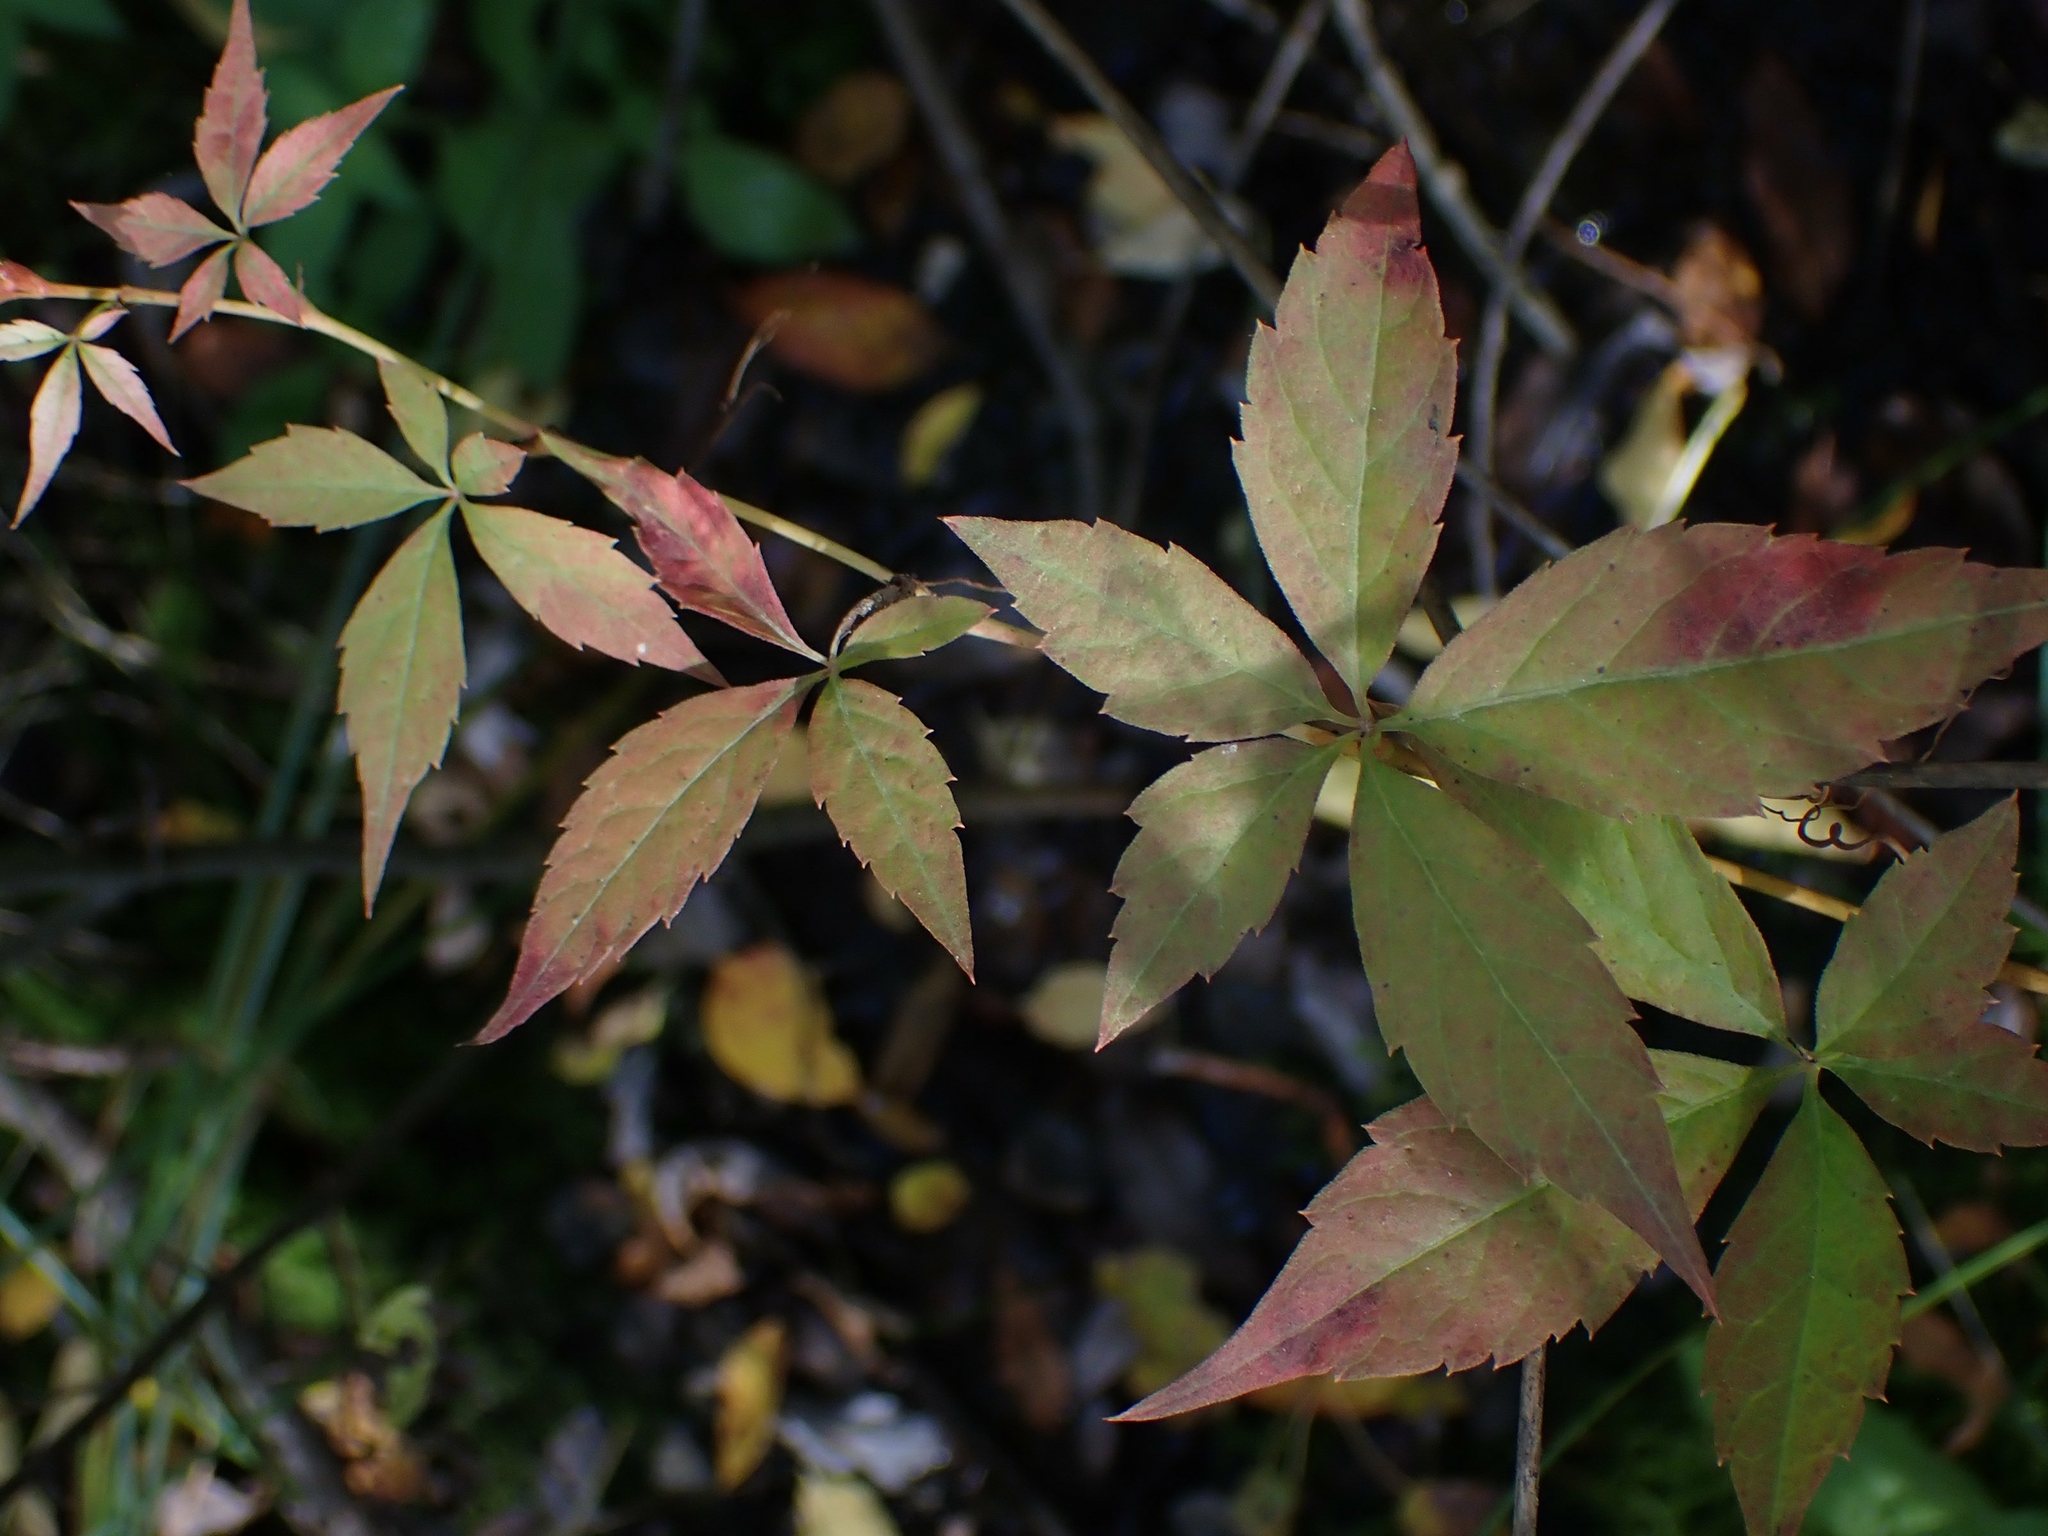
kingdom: Plantae
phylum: Tracheophyta
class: Magnoliopsida
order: Vitales
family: Vitaceae
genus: Parthenocissus
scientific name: Parthenocissus inserta
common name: False virginia-creeper
